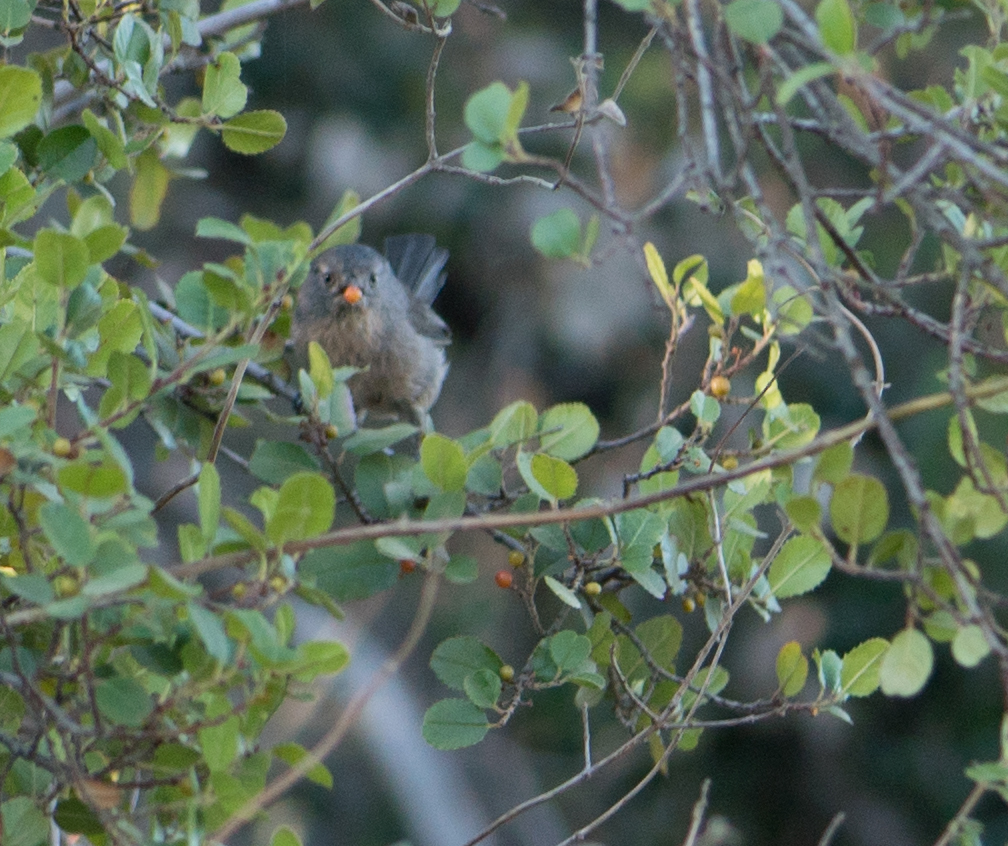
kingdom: Animalia
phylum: Chordata
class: Aves
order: Passeriformes
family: Sylviidae
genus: Chamaea
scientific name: Chamaea fasciata
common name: Wrentit
